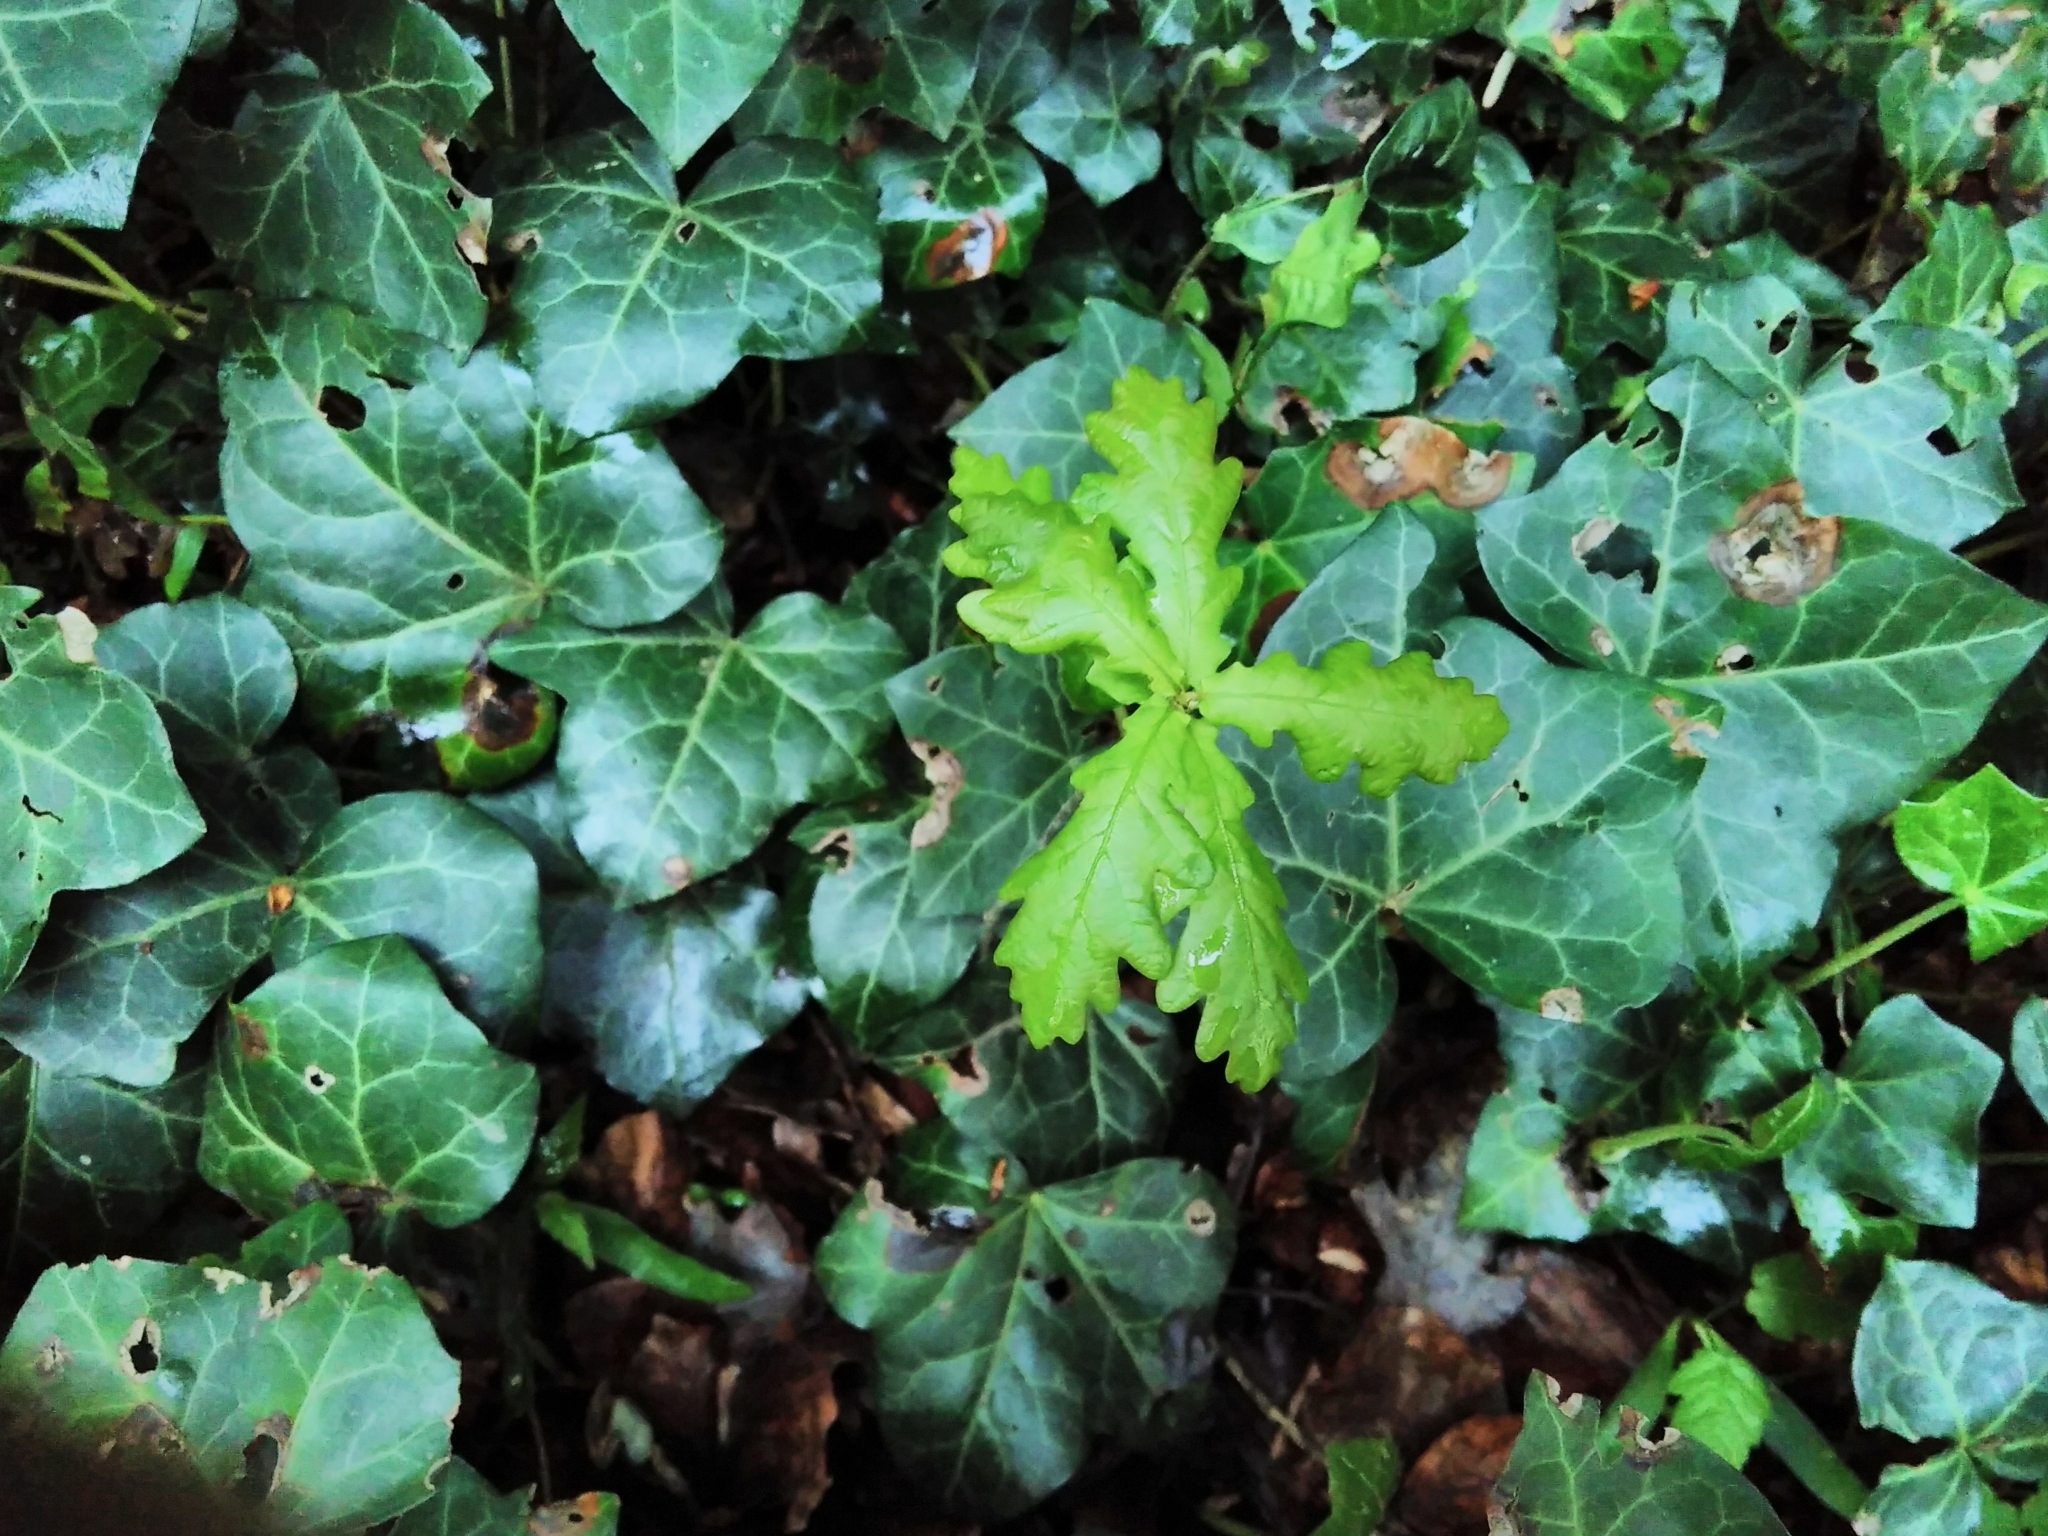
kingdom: Plantae
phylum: Tracheophyta
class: Magnoliopsida
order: Fagales
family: Fagaceae
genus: Quercus
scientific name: Quercus robur
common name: Pedunculate oak
